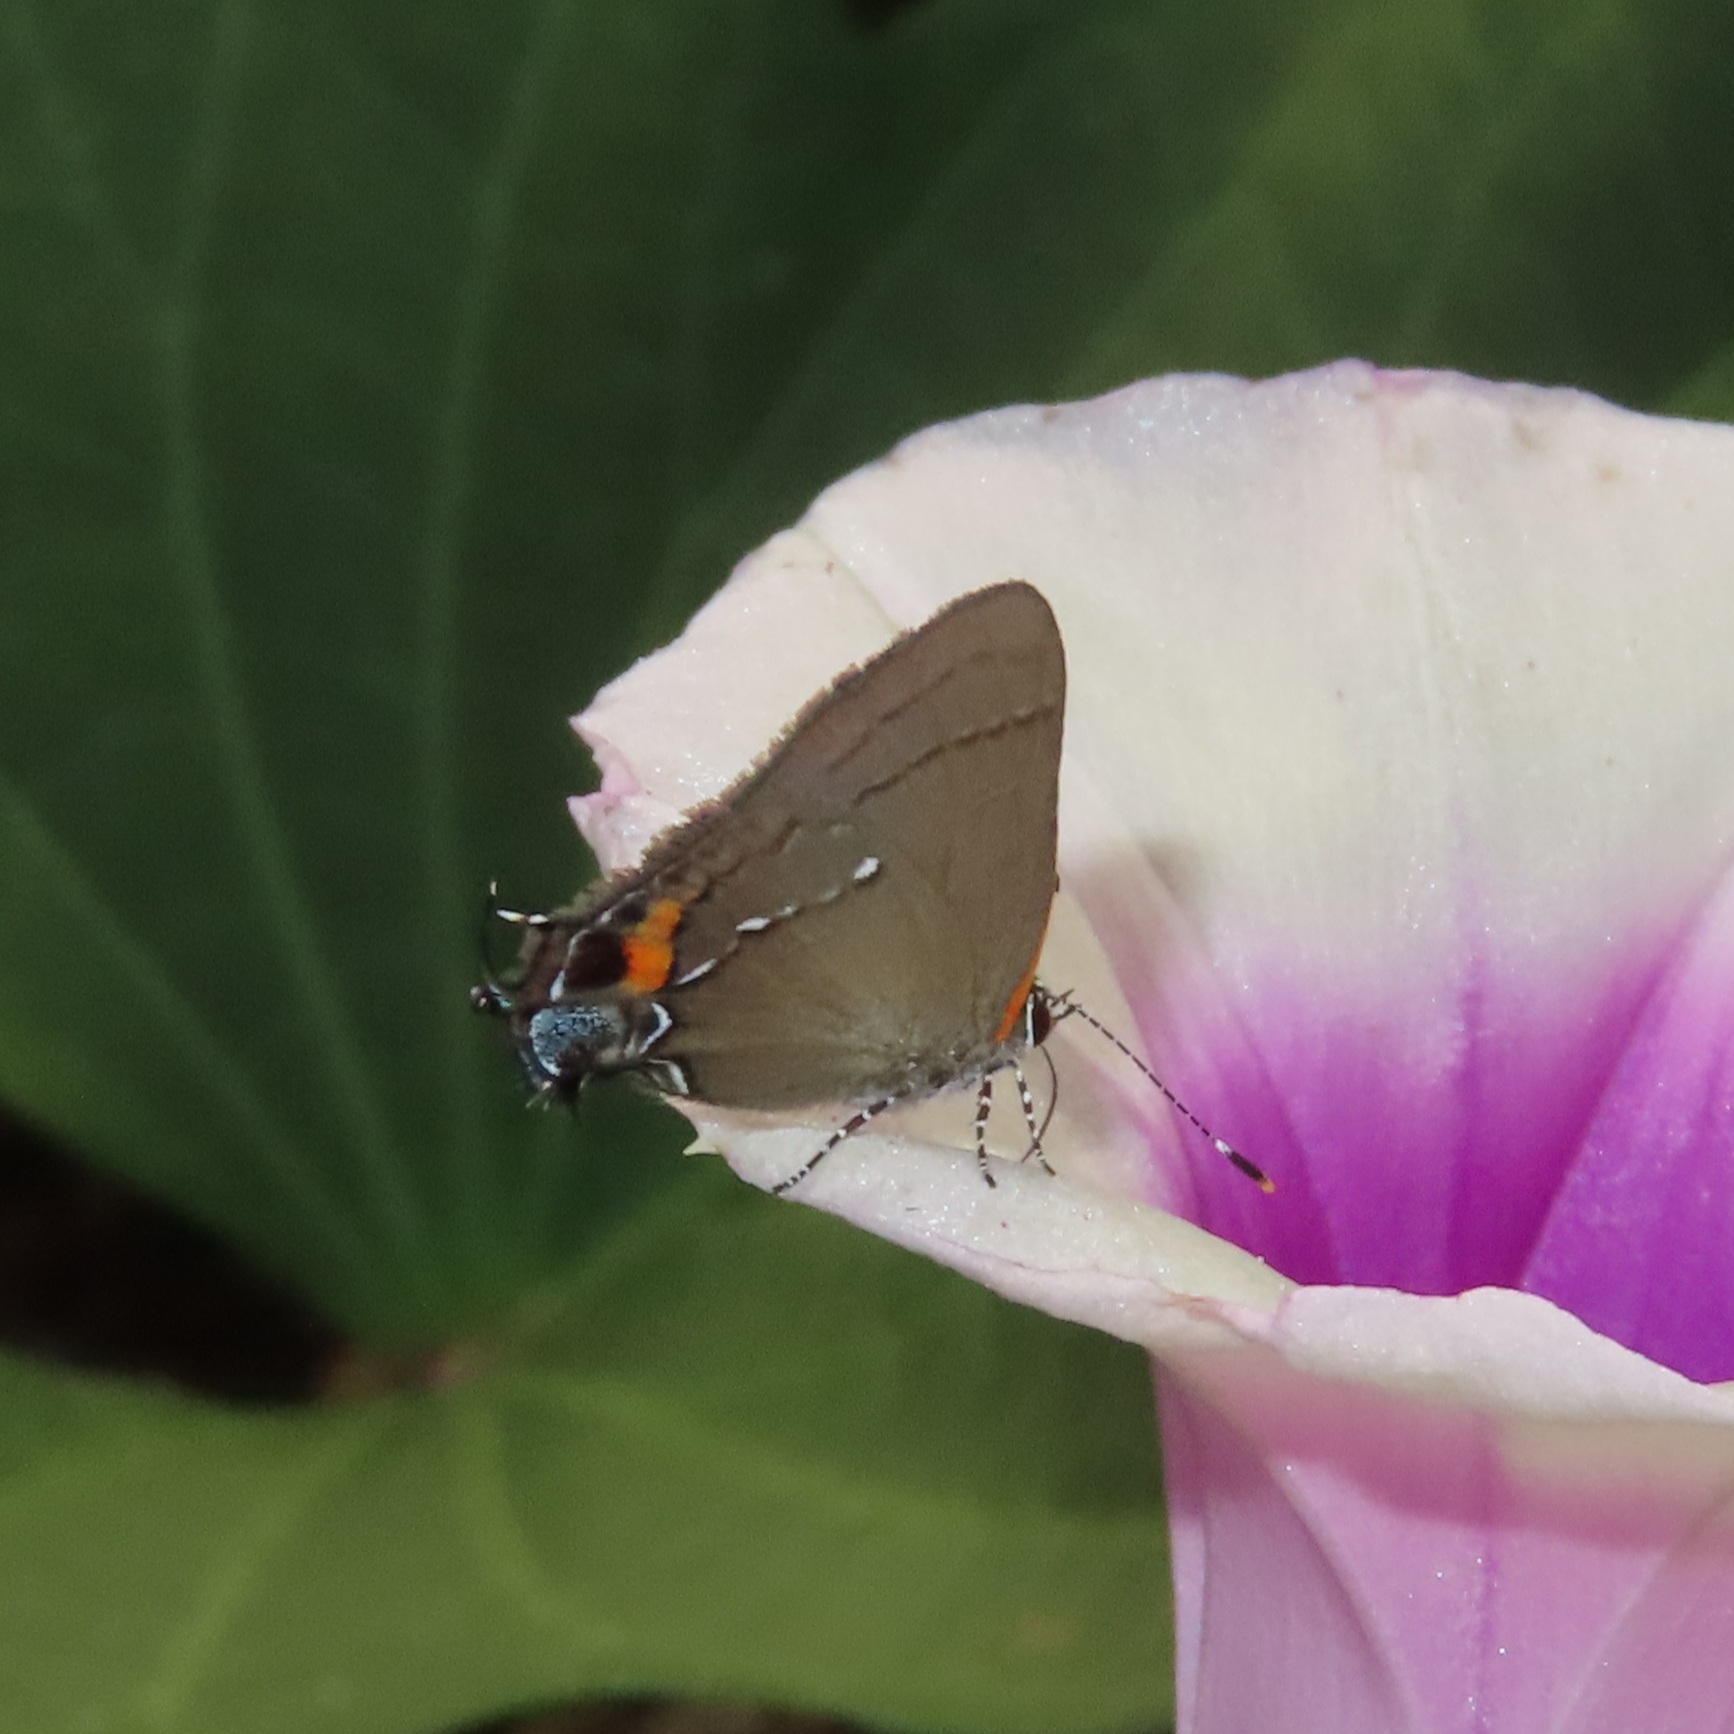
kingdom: Animalia
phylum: Arthropoda
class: Insecta
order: Lepidoptera
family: Lycaenidae
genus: Thecla
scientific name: Thecla angelia
